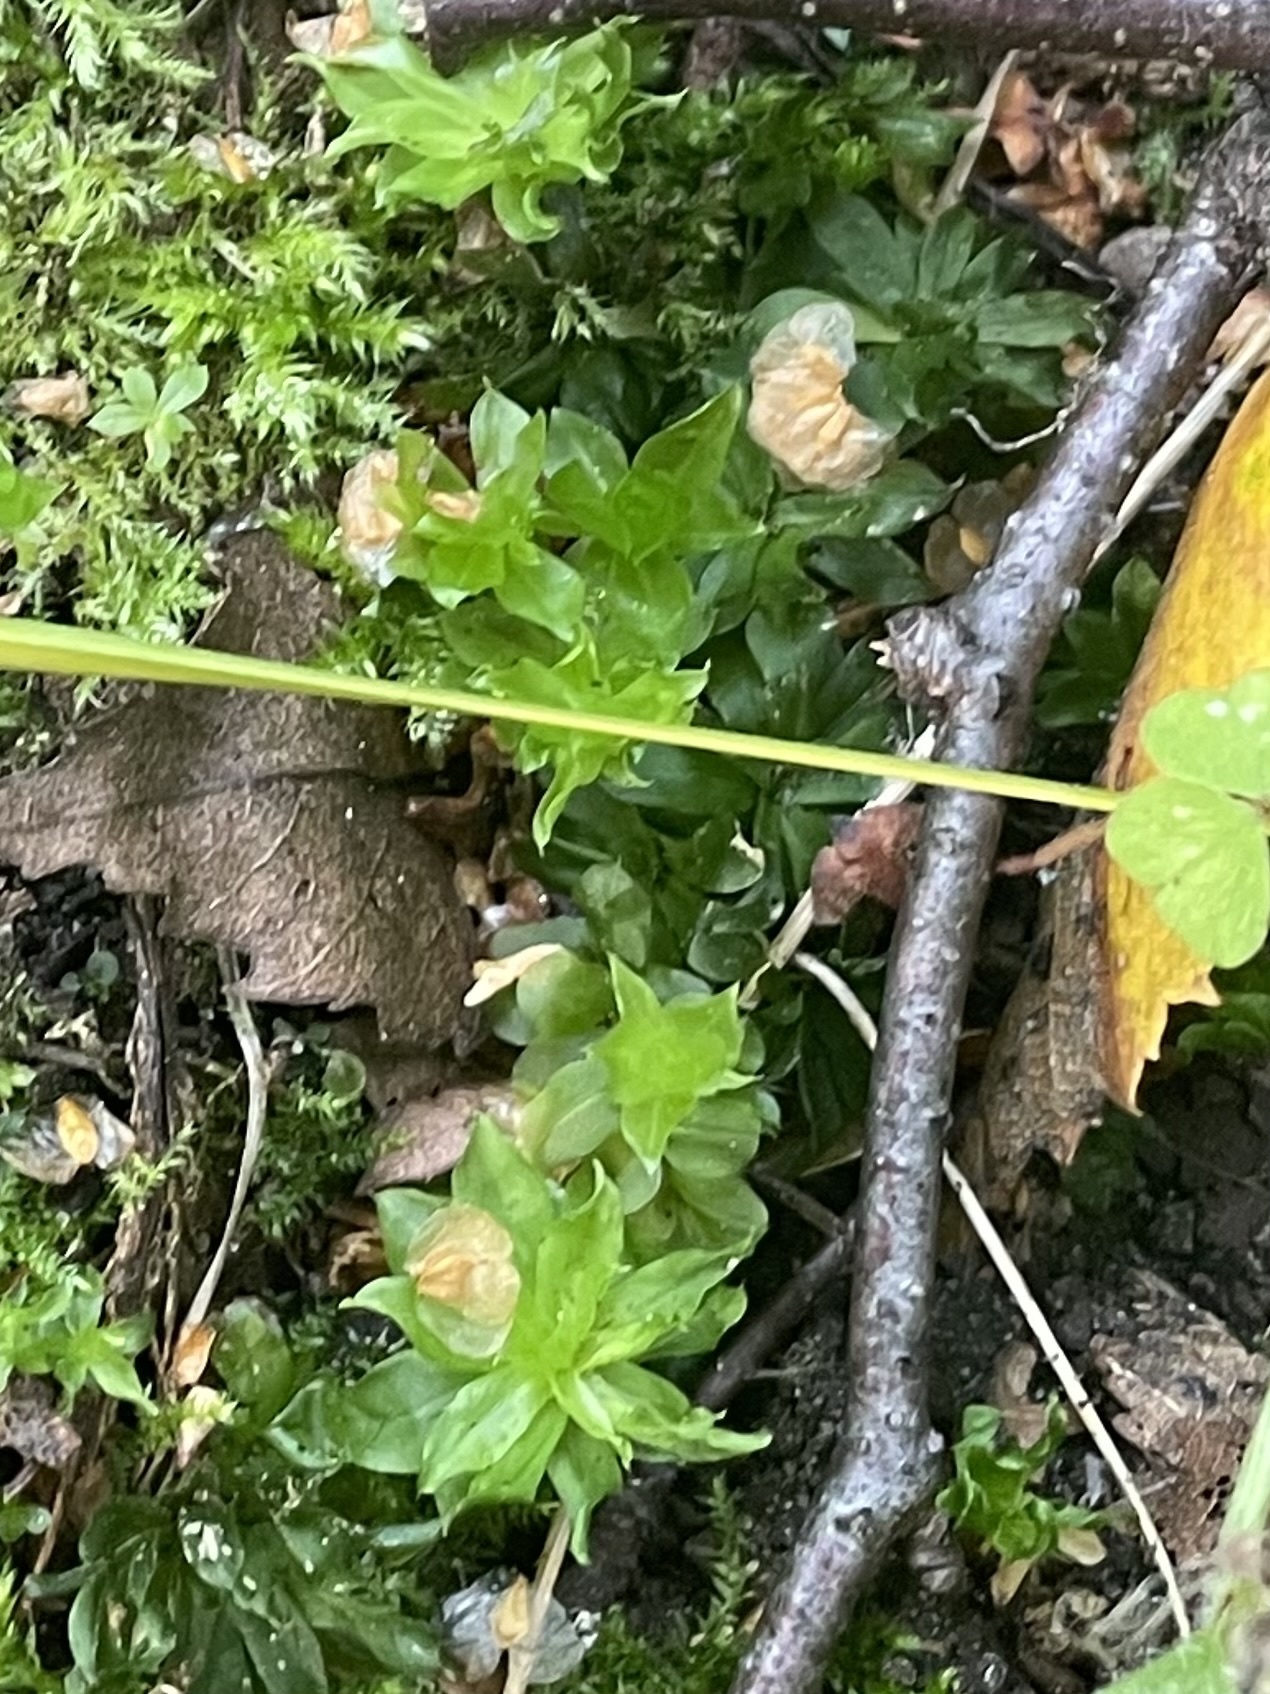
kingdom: Plantae
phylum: Bryophyta
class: Bryopsida
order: Bryales
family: Bryaceae
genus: Rhodobryum
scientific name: Rhodobryum roseum
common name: Rose-moss
